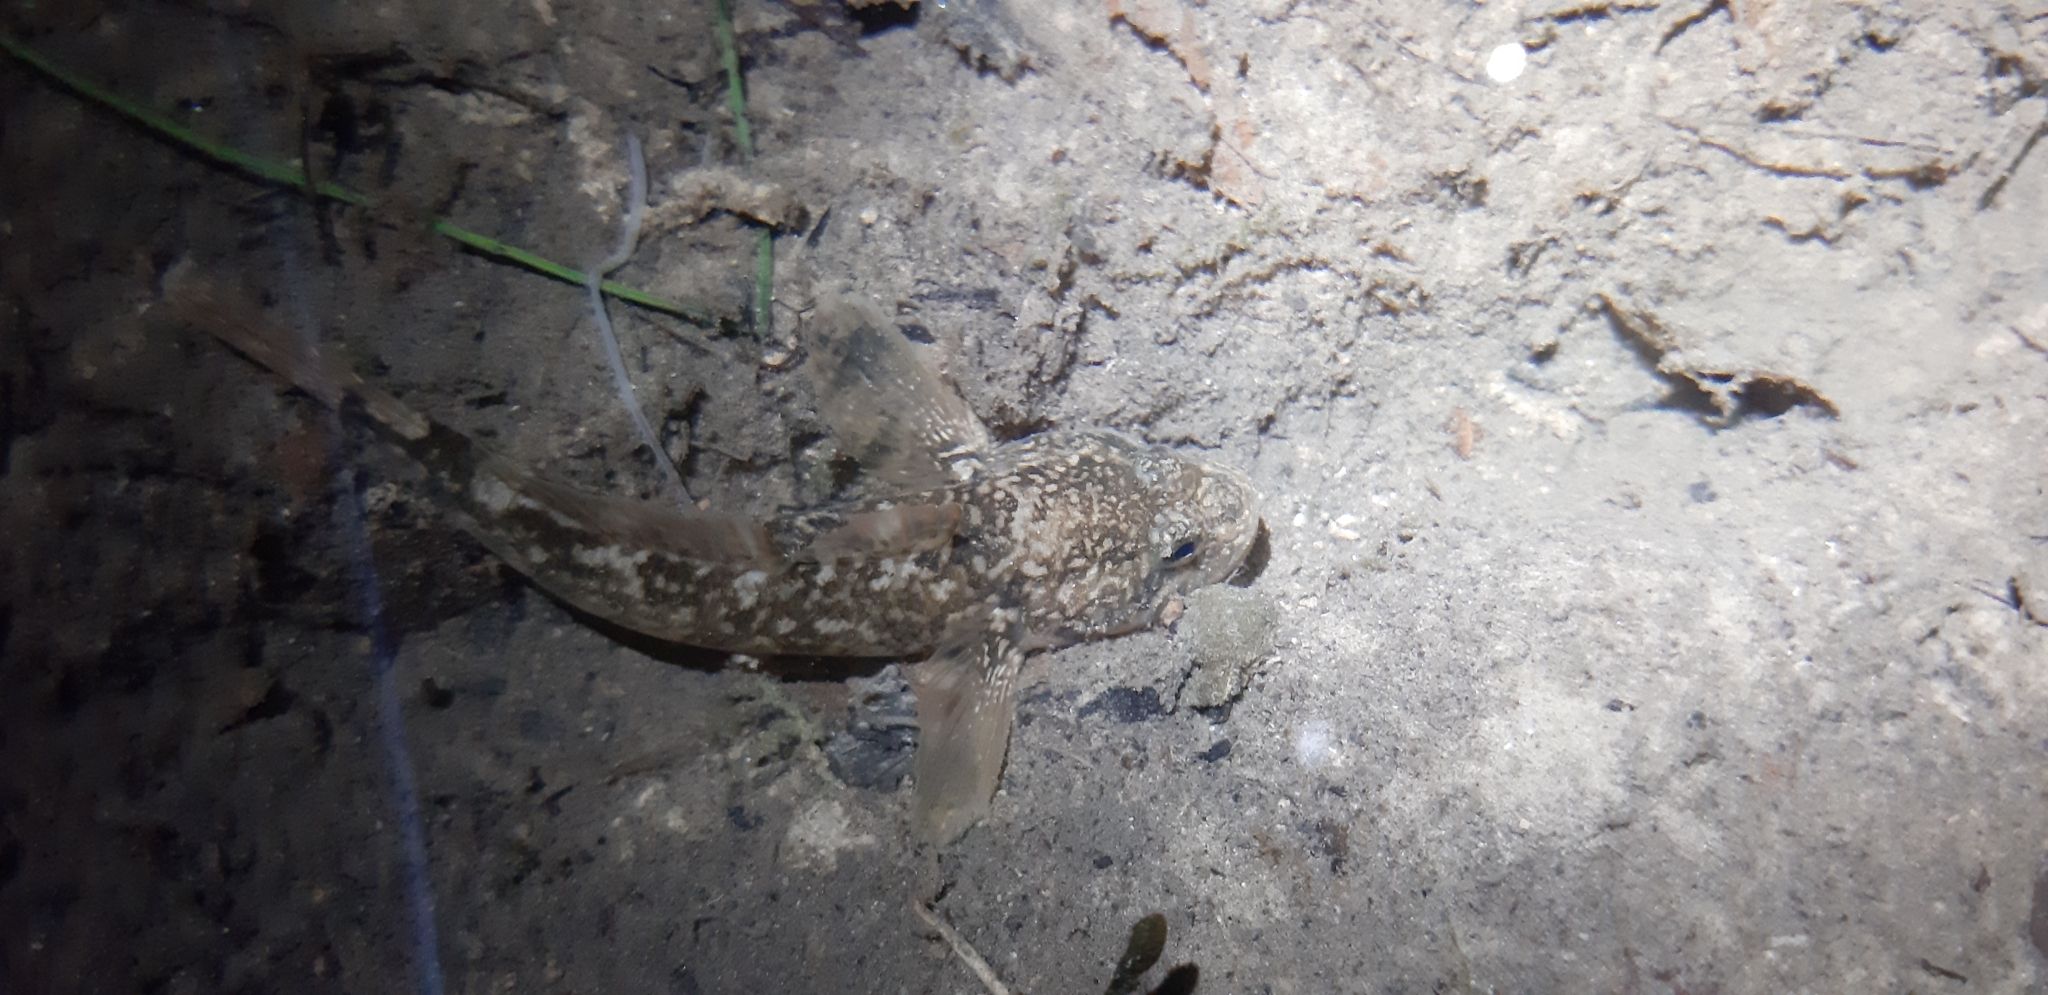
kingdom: Animalia
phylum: Chordata
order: Perciformes
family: Gobiidae
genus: Padogobius
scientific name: Padogobius nigricans
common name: Arno goby
